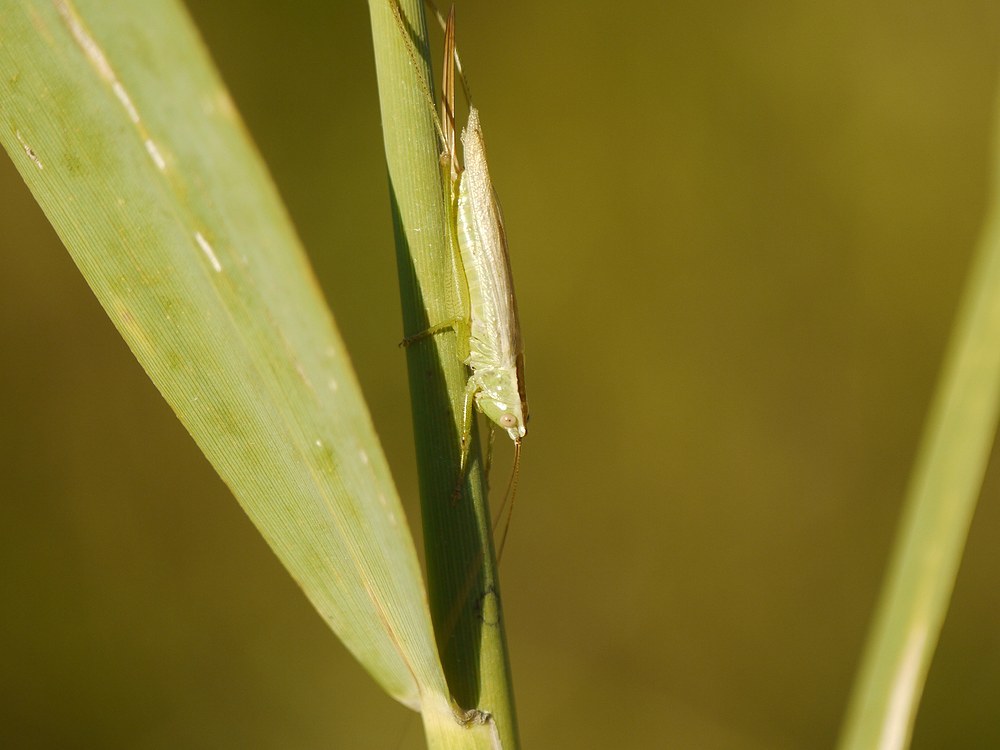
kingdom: Animalia
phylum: Arthropoda
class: Insecta
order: Orthoptera
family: Tettigoniidae
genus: Conocephalus
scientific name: Conocephalus fuscus
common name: Long-winged conehead
